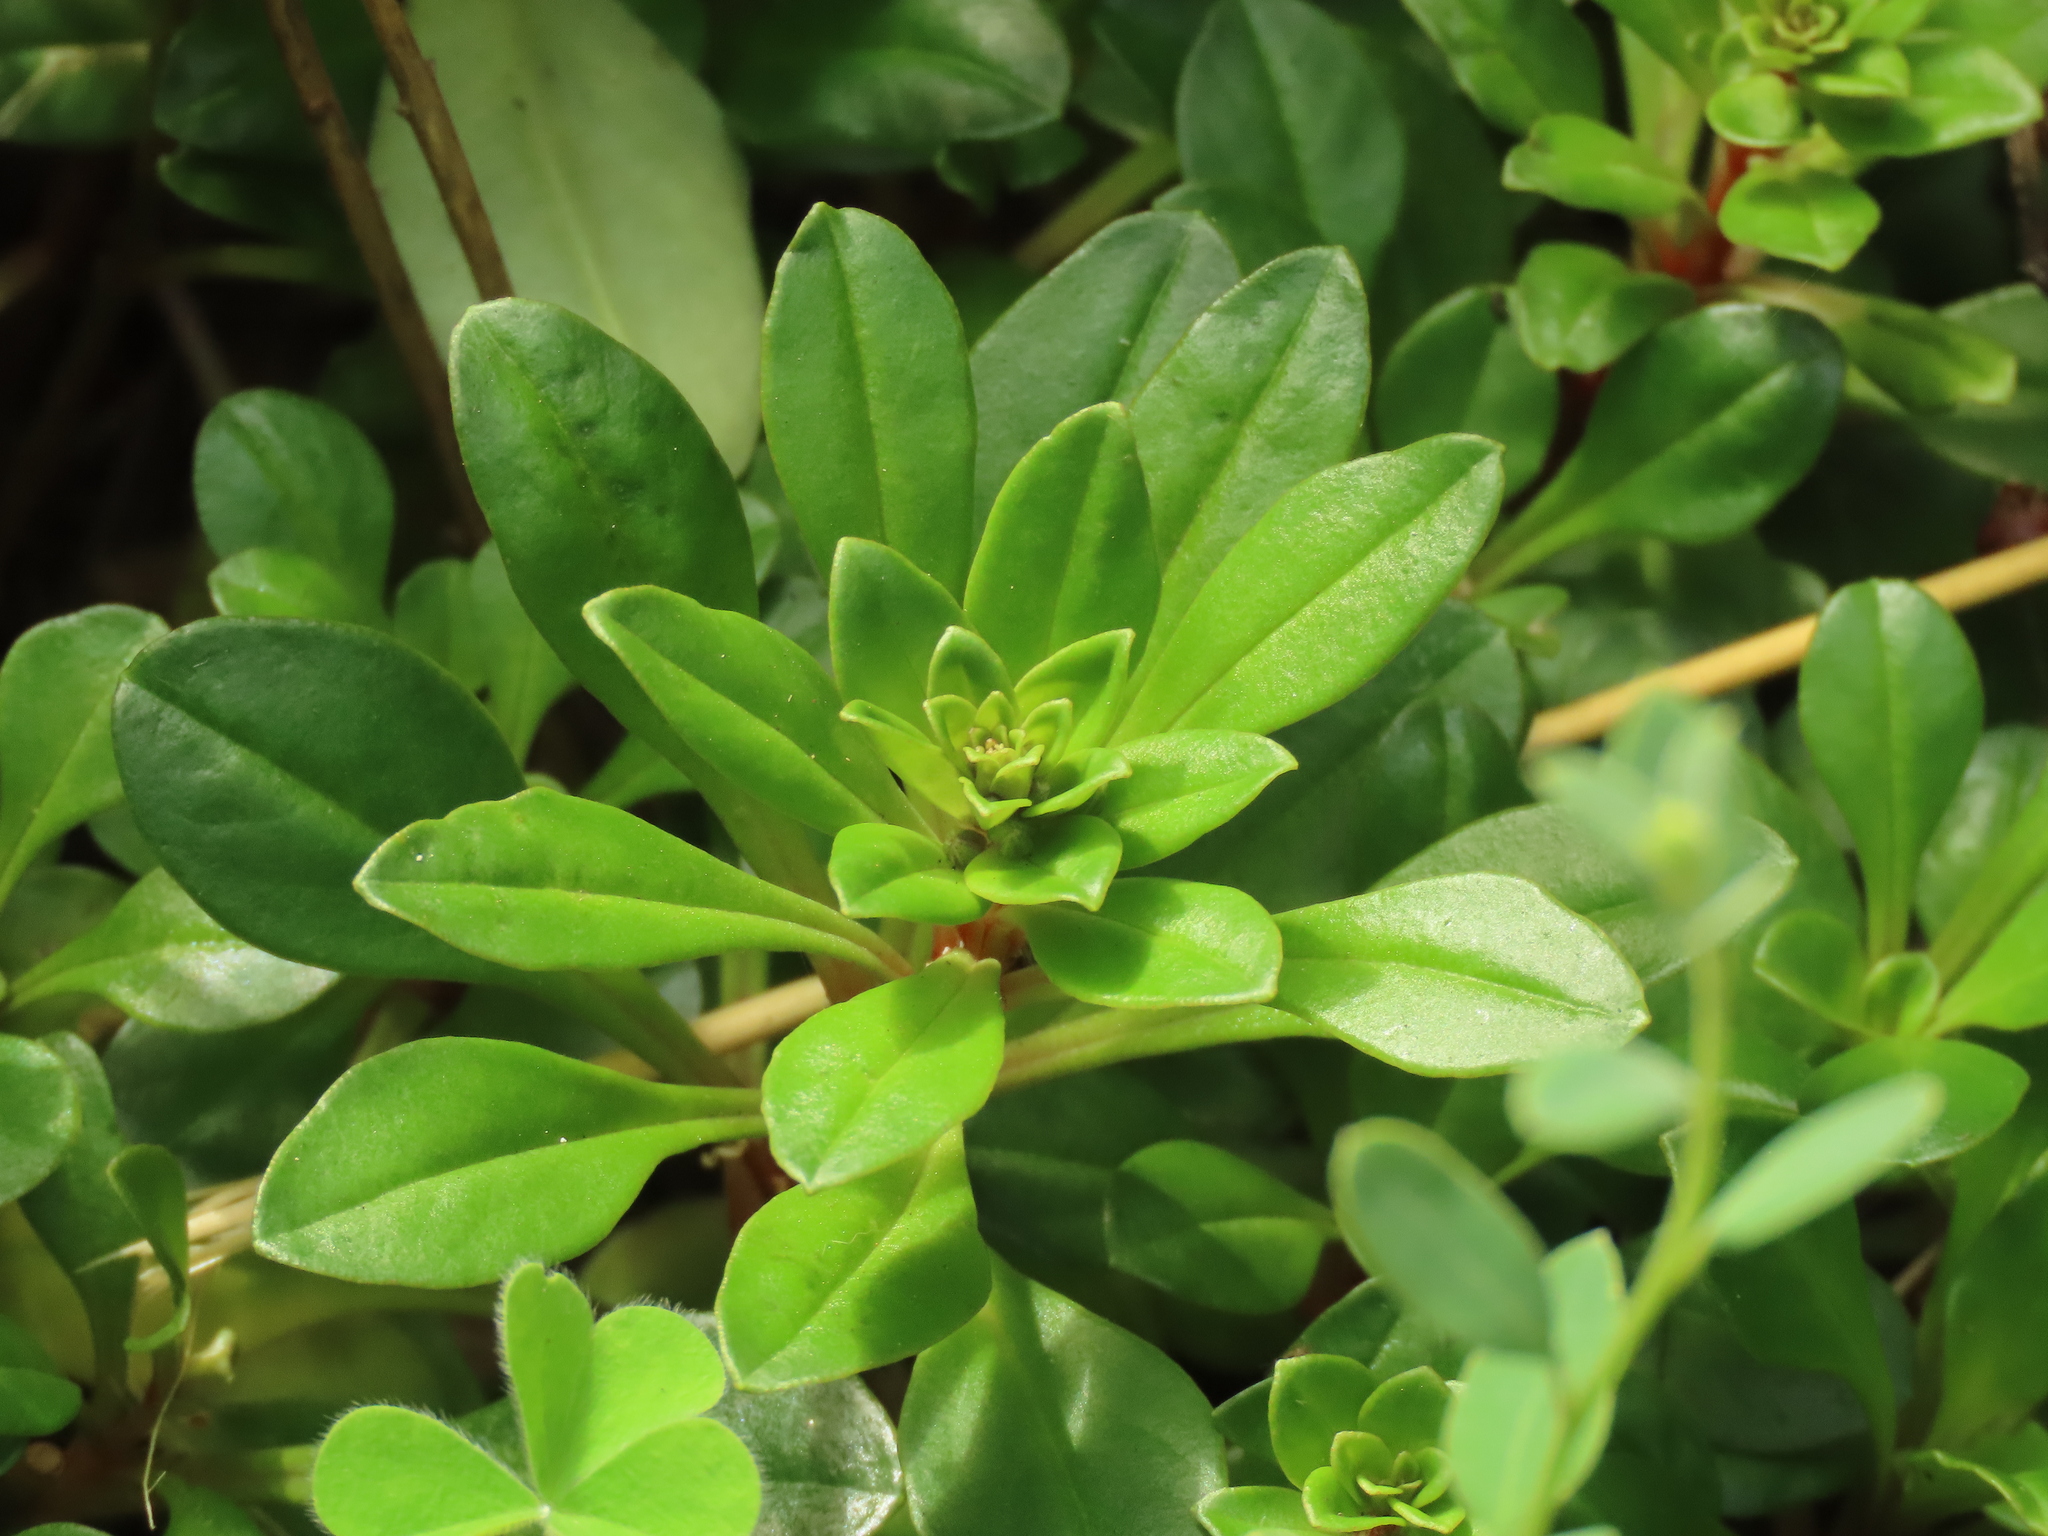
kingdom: Plantae
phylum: Tracheophyta
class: Magnoliopsida
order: Ericales
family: Primulaceae
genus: Lysimachia
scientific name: Lysimachia mauritiana
